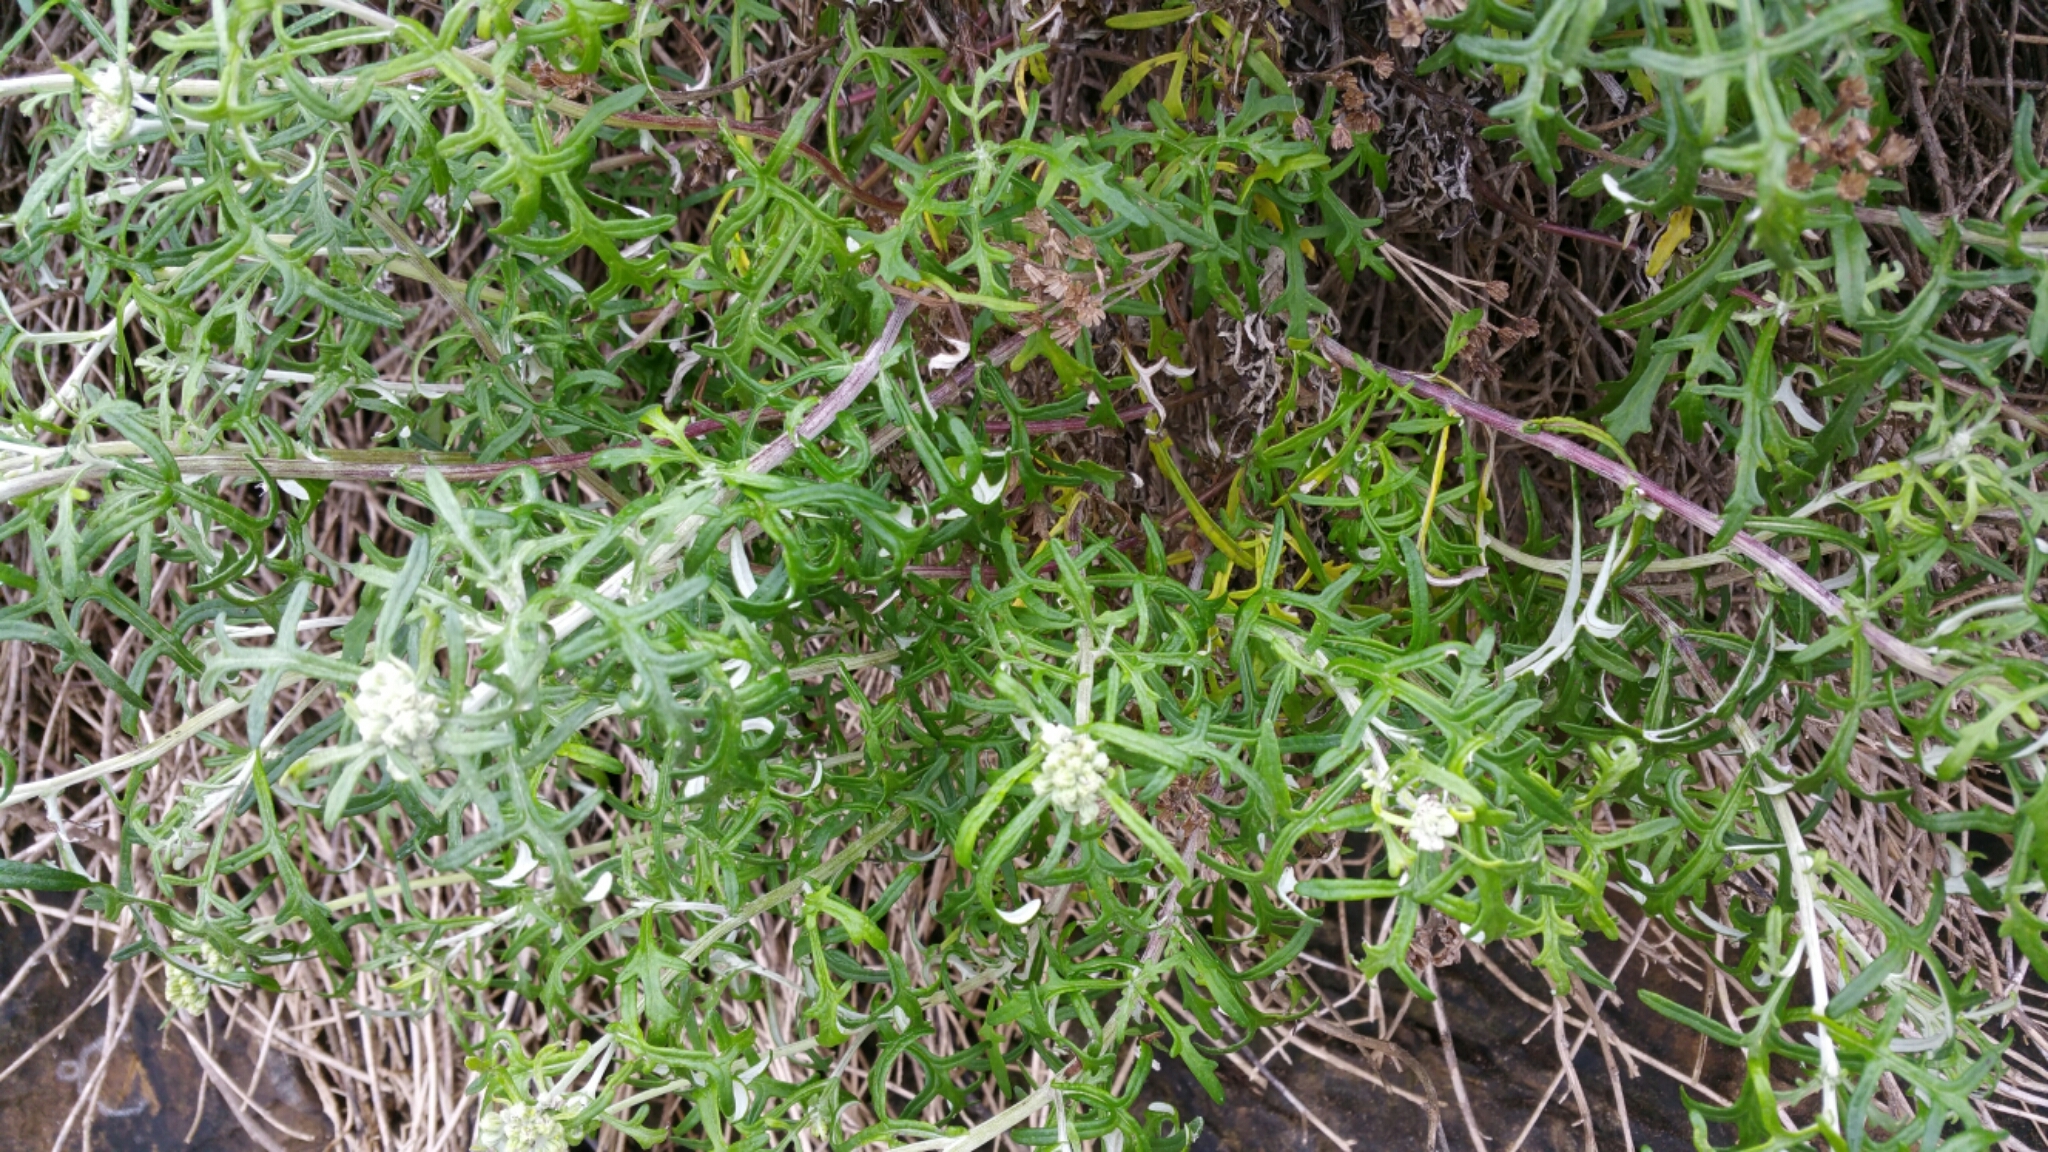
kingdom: Plantae
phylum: Tracheophyta
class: Magnoliopsida
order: Asterales
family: Asteraceae
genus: Eriophyllum
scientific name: Eriophyllum staechadifolium
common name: Lizardtail
